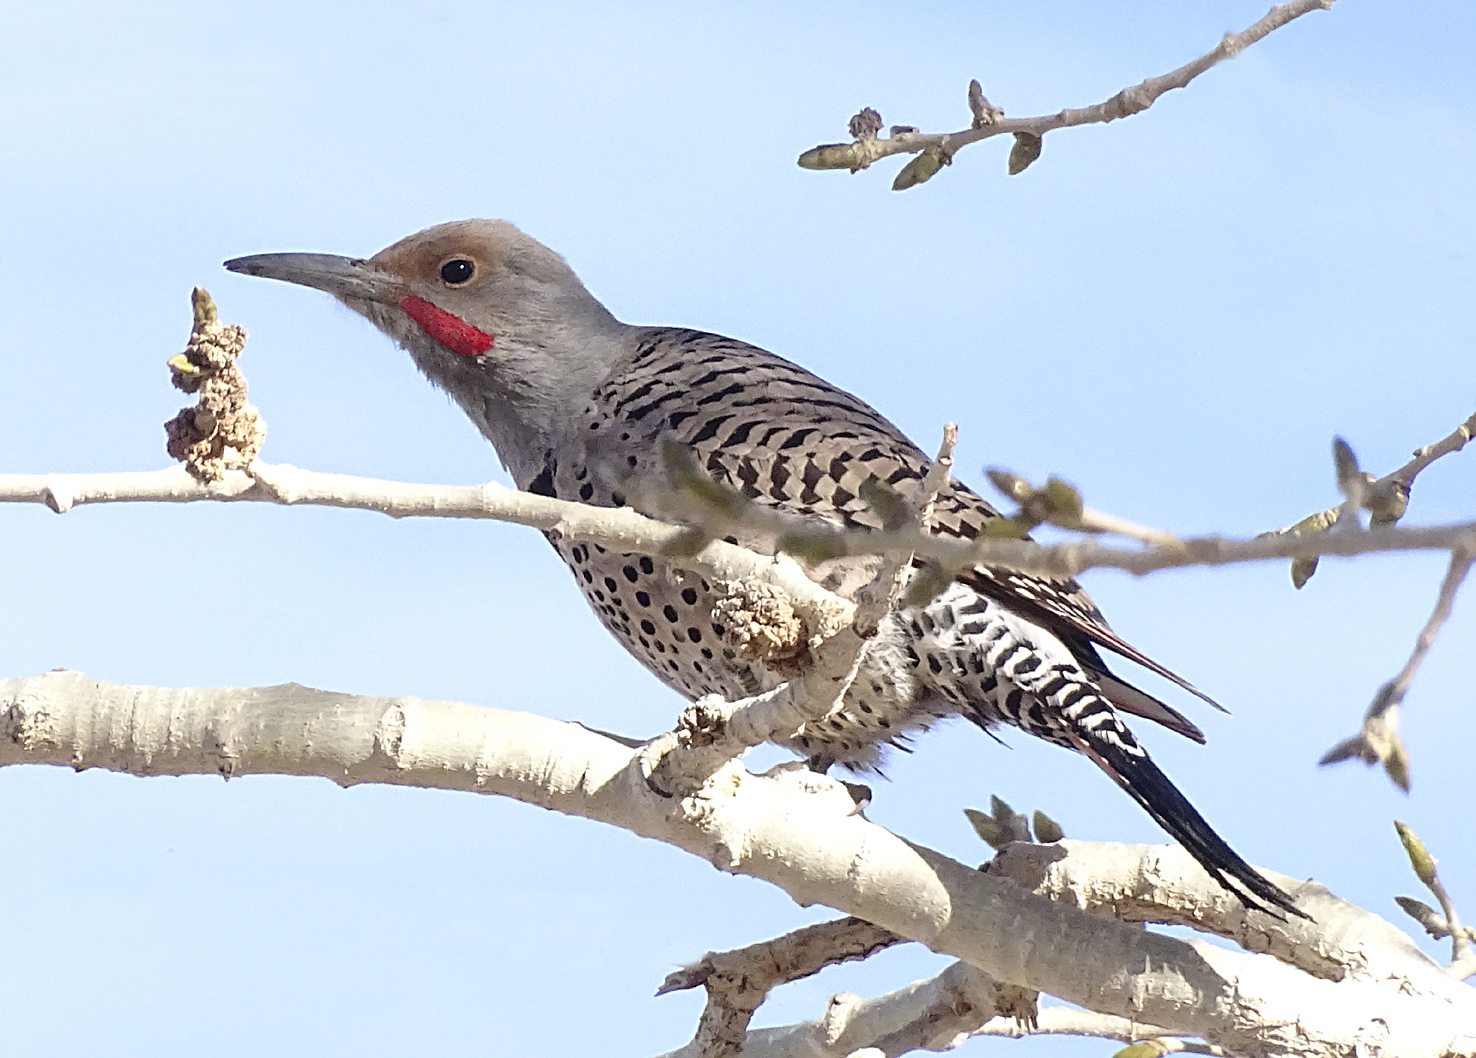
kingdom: Animalia
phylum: Chordata
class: Aves
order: Piciformes
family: Picidae
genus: Colaptes
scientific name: Colaptes auratus
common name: Northern flicker
